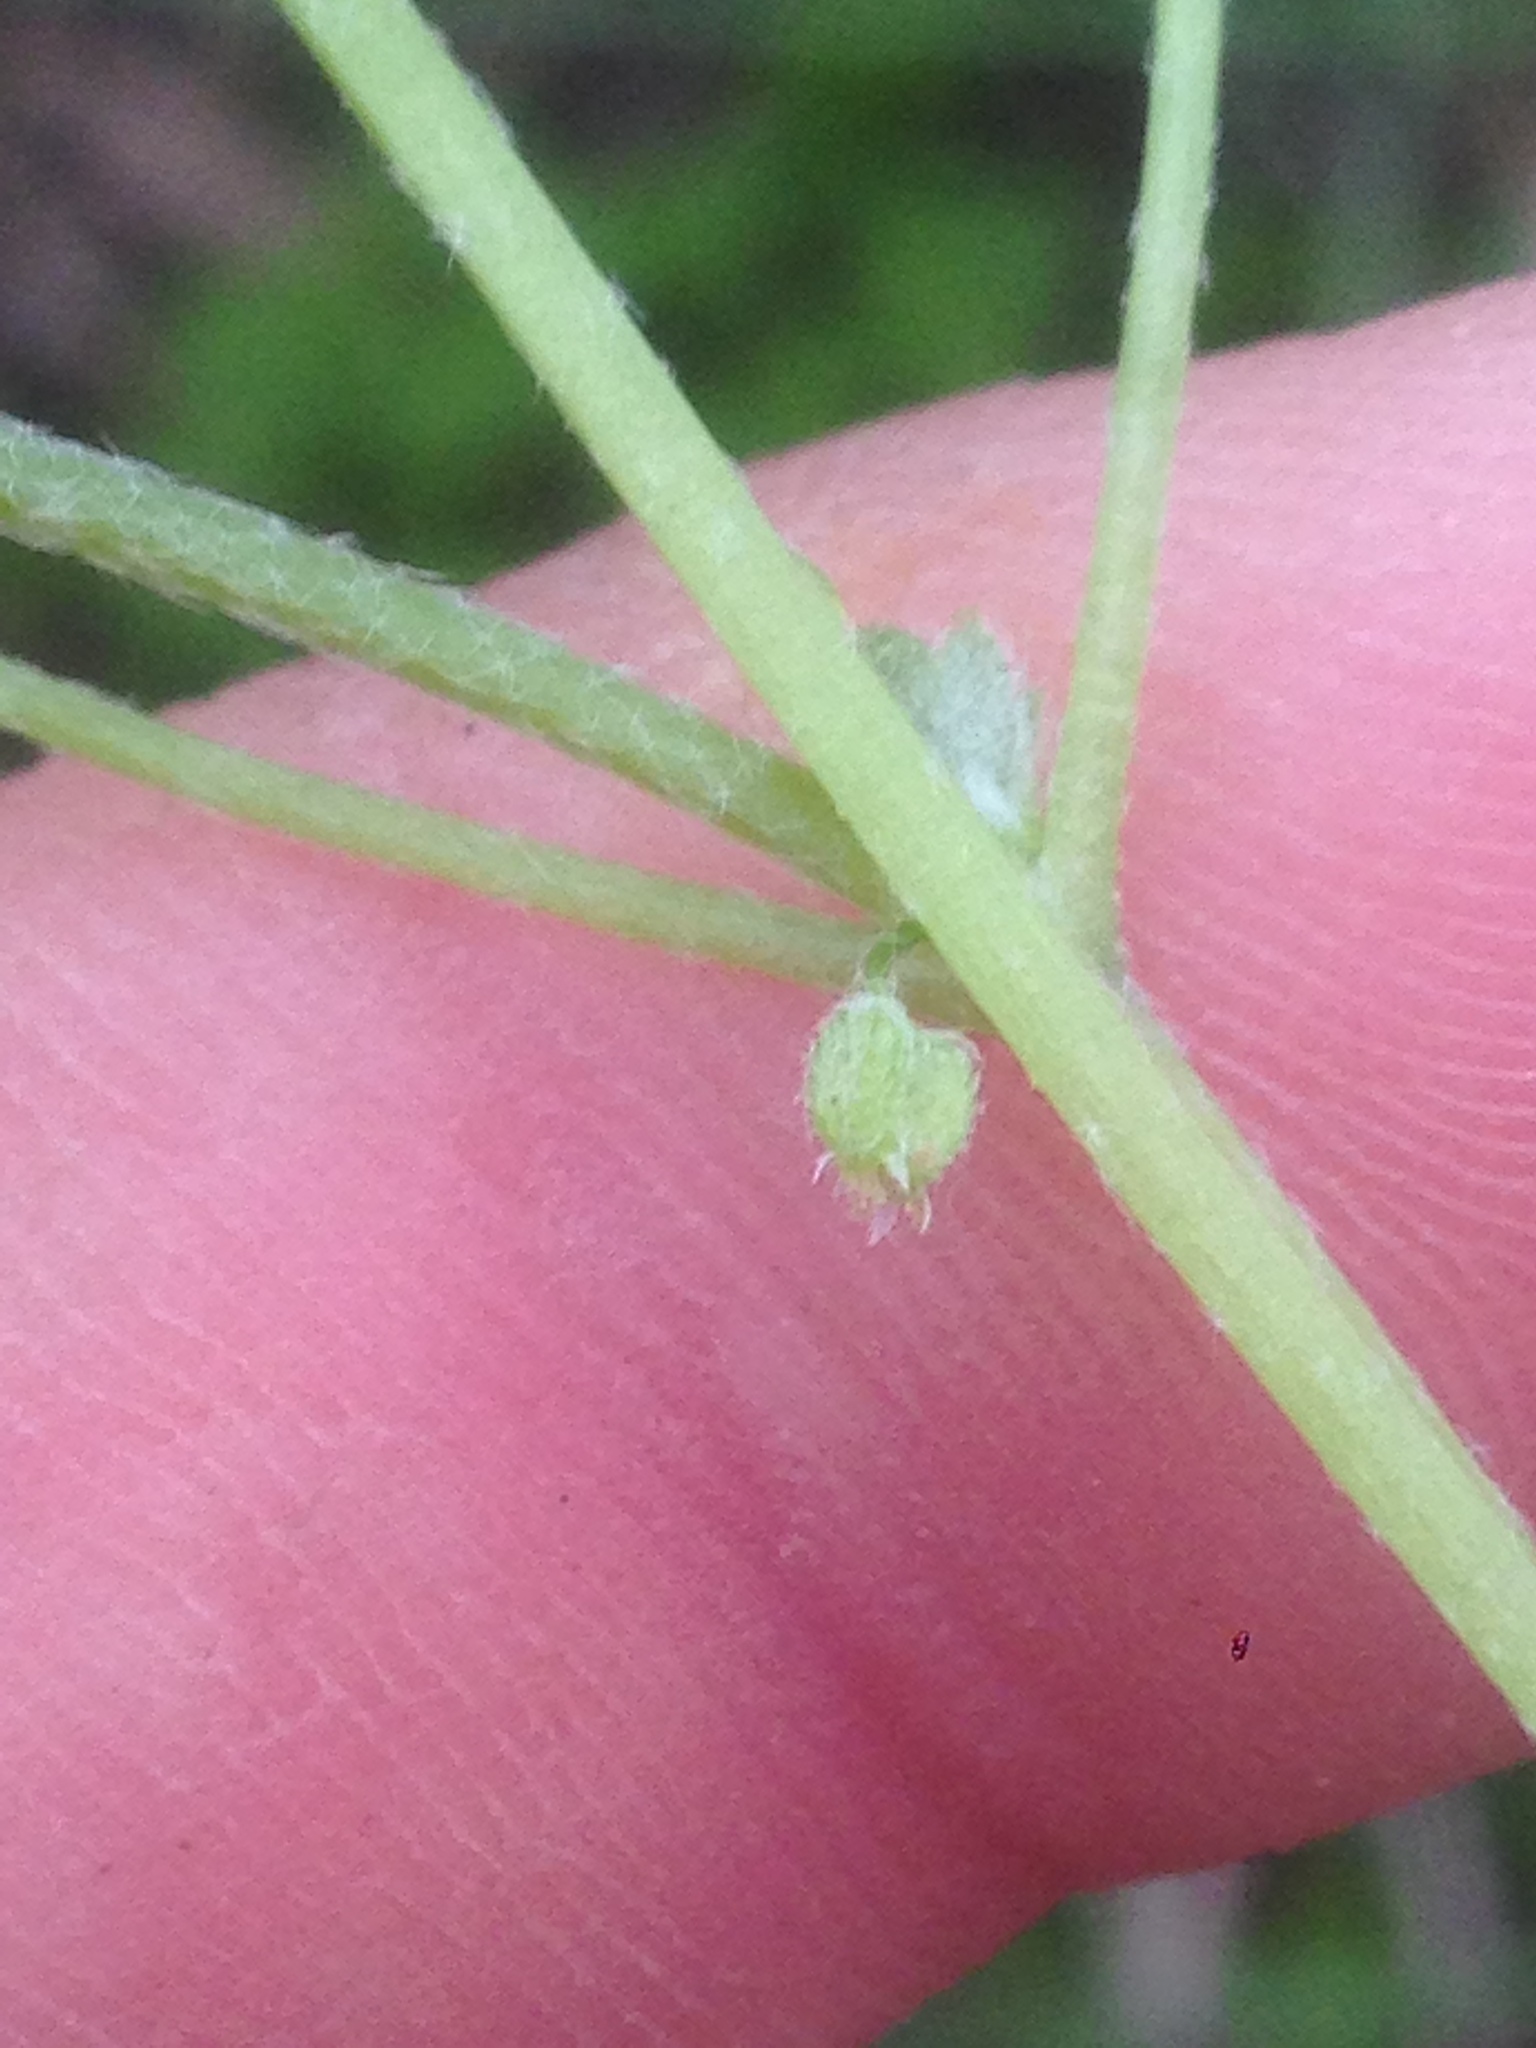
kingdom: Plantae
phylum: Tracheophyta
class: Magnoliopsida
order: Apiales
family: Apiaceae
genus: Bowlesia
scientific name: Bowlesia incana
